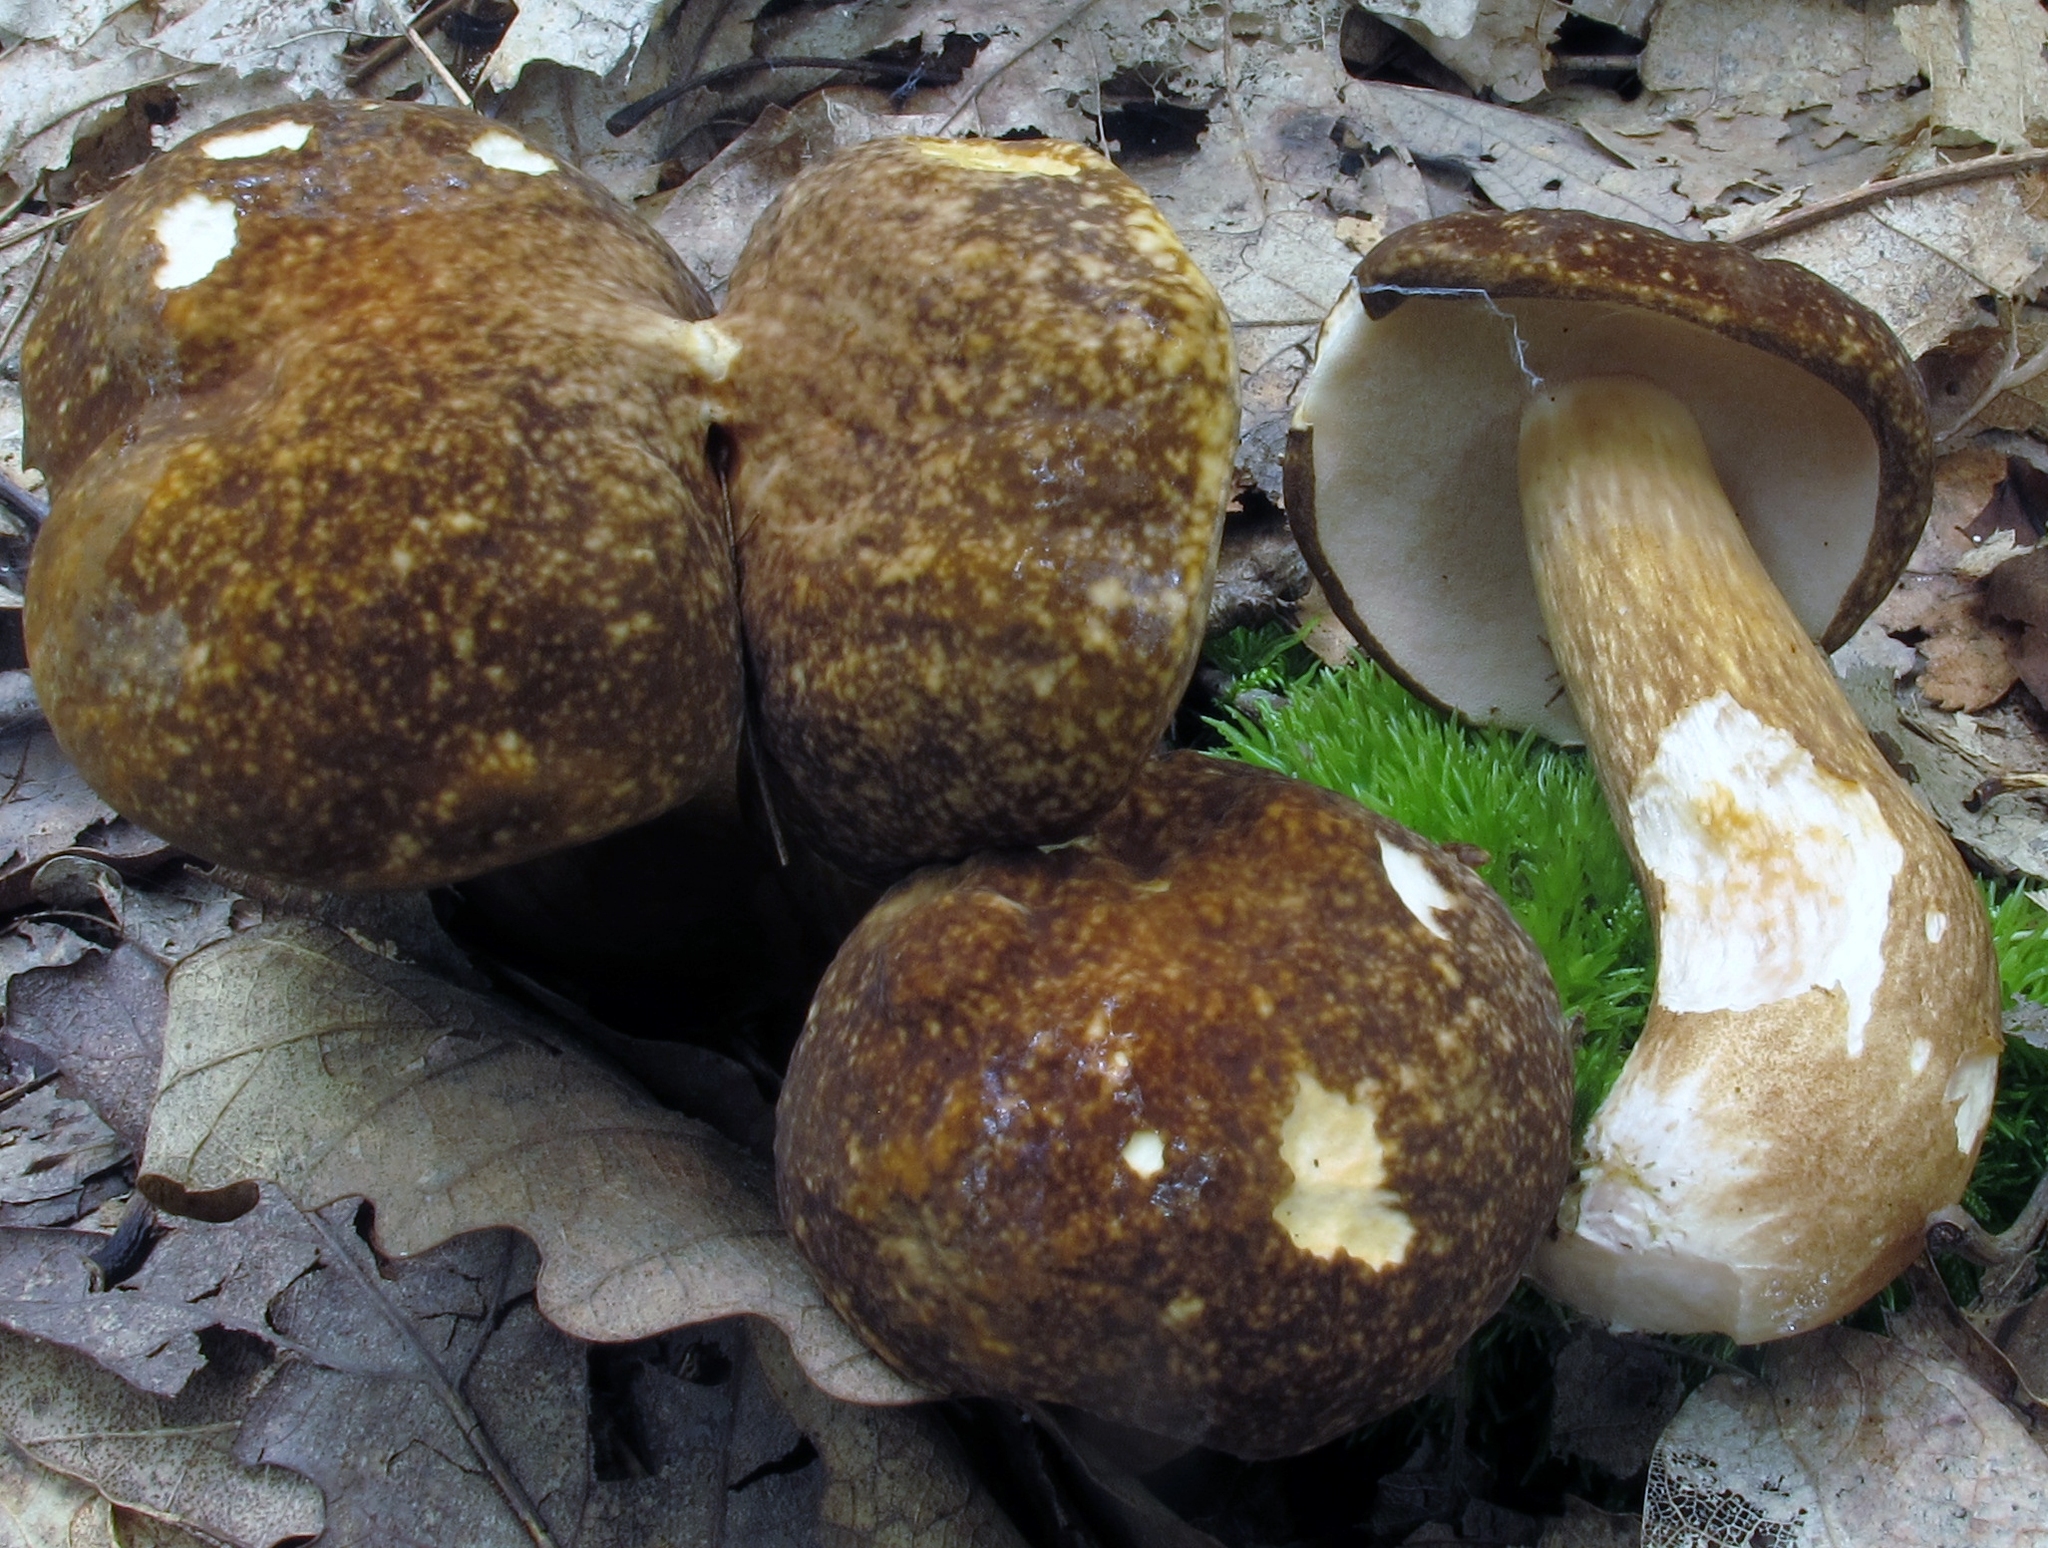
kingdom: Fungi
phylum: Basidiomycota
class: Agaricomycetes
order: Boletales
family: Boletaceae
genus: Xanthoconium
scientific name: Xanthoconium affine
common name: Spotted bolete
